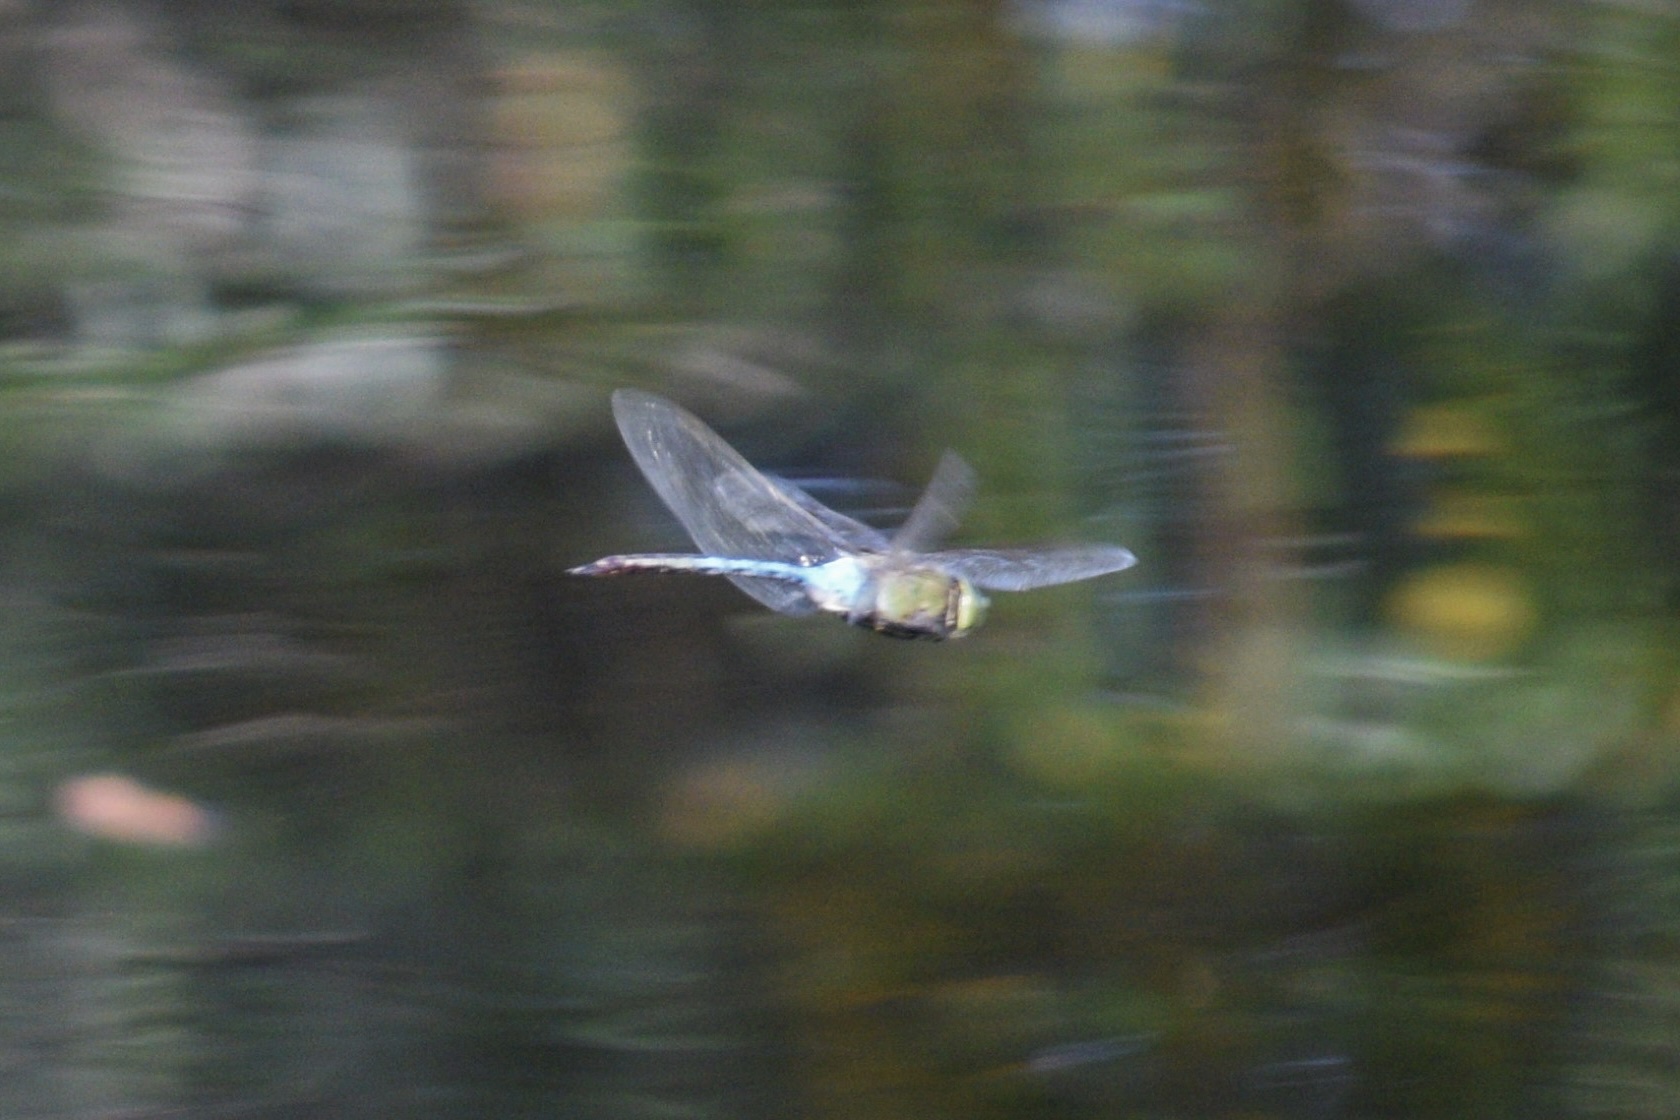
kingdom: Animalia
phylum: Arthropoda
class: Insecta
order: Odonata
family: Aeshnidae
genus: Anax
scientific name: Anax junius
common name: Common green darner
